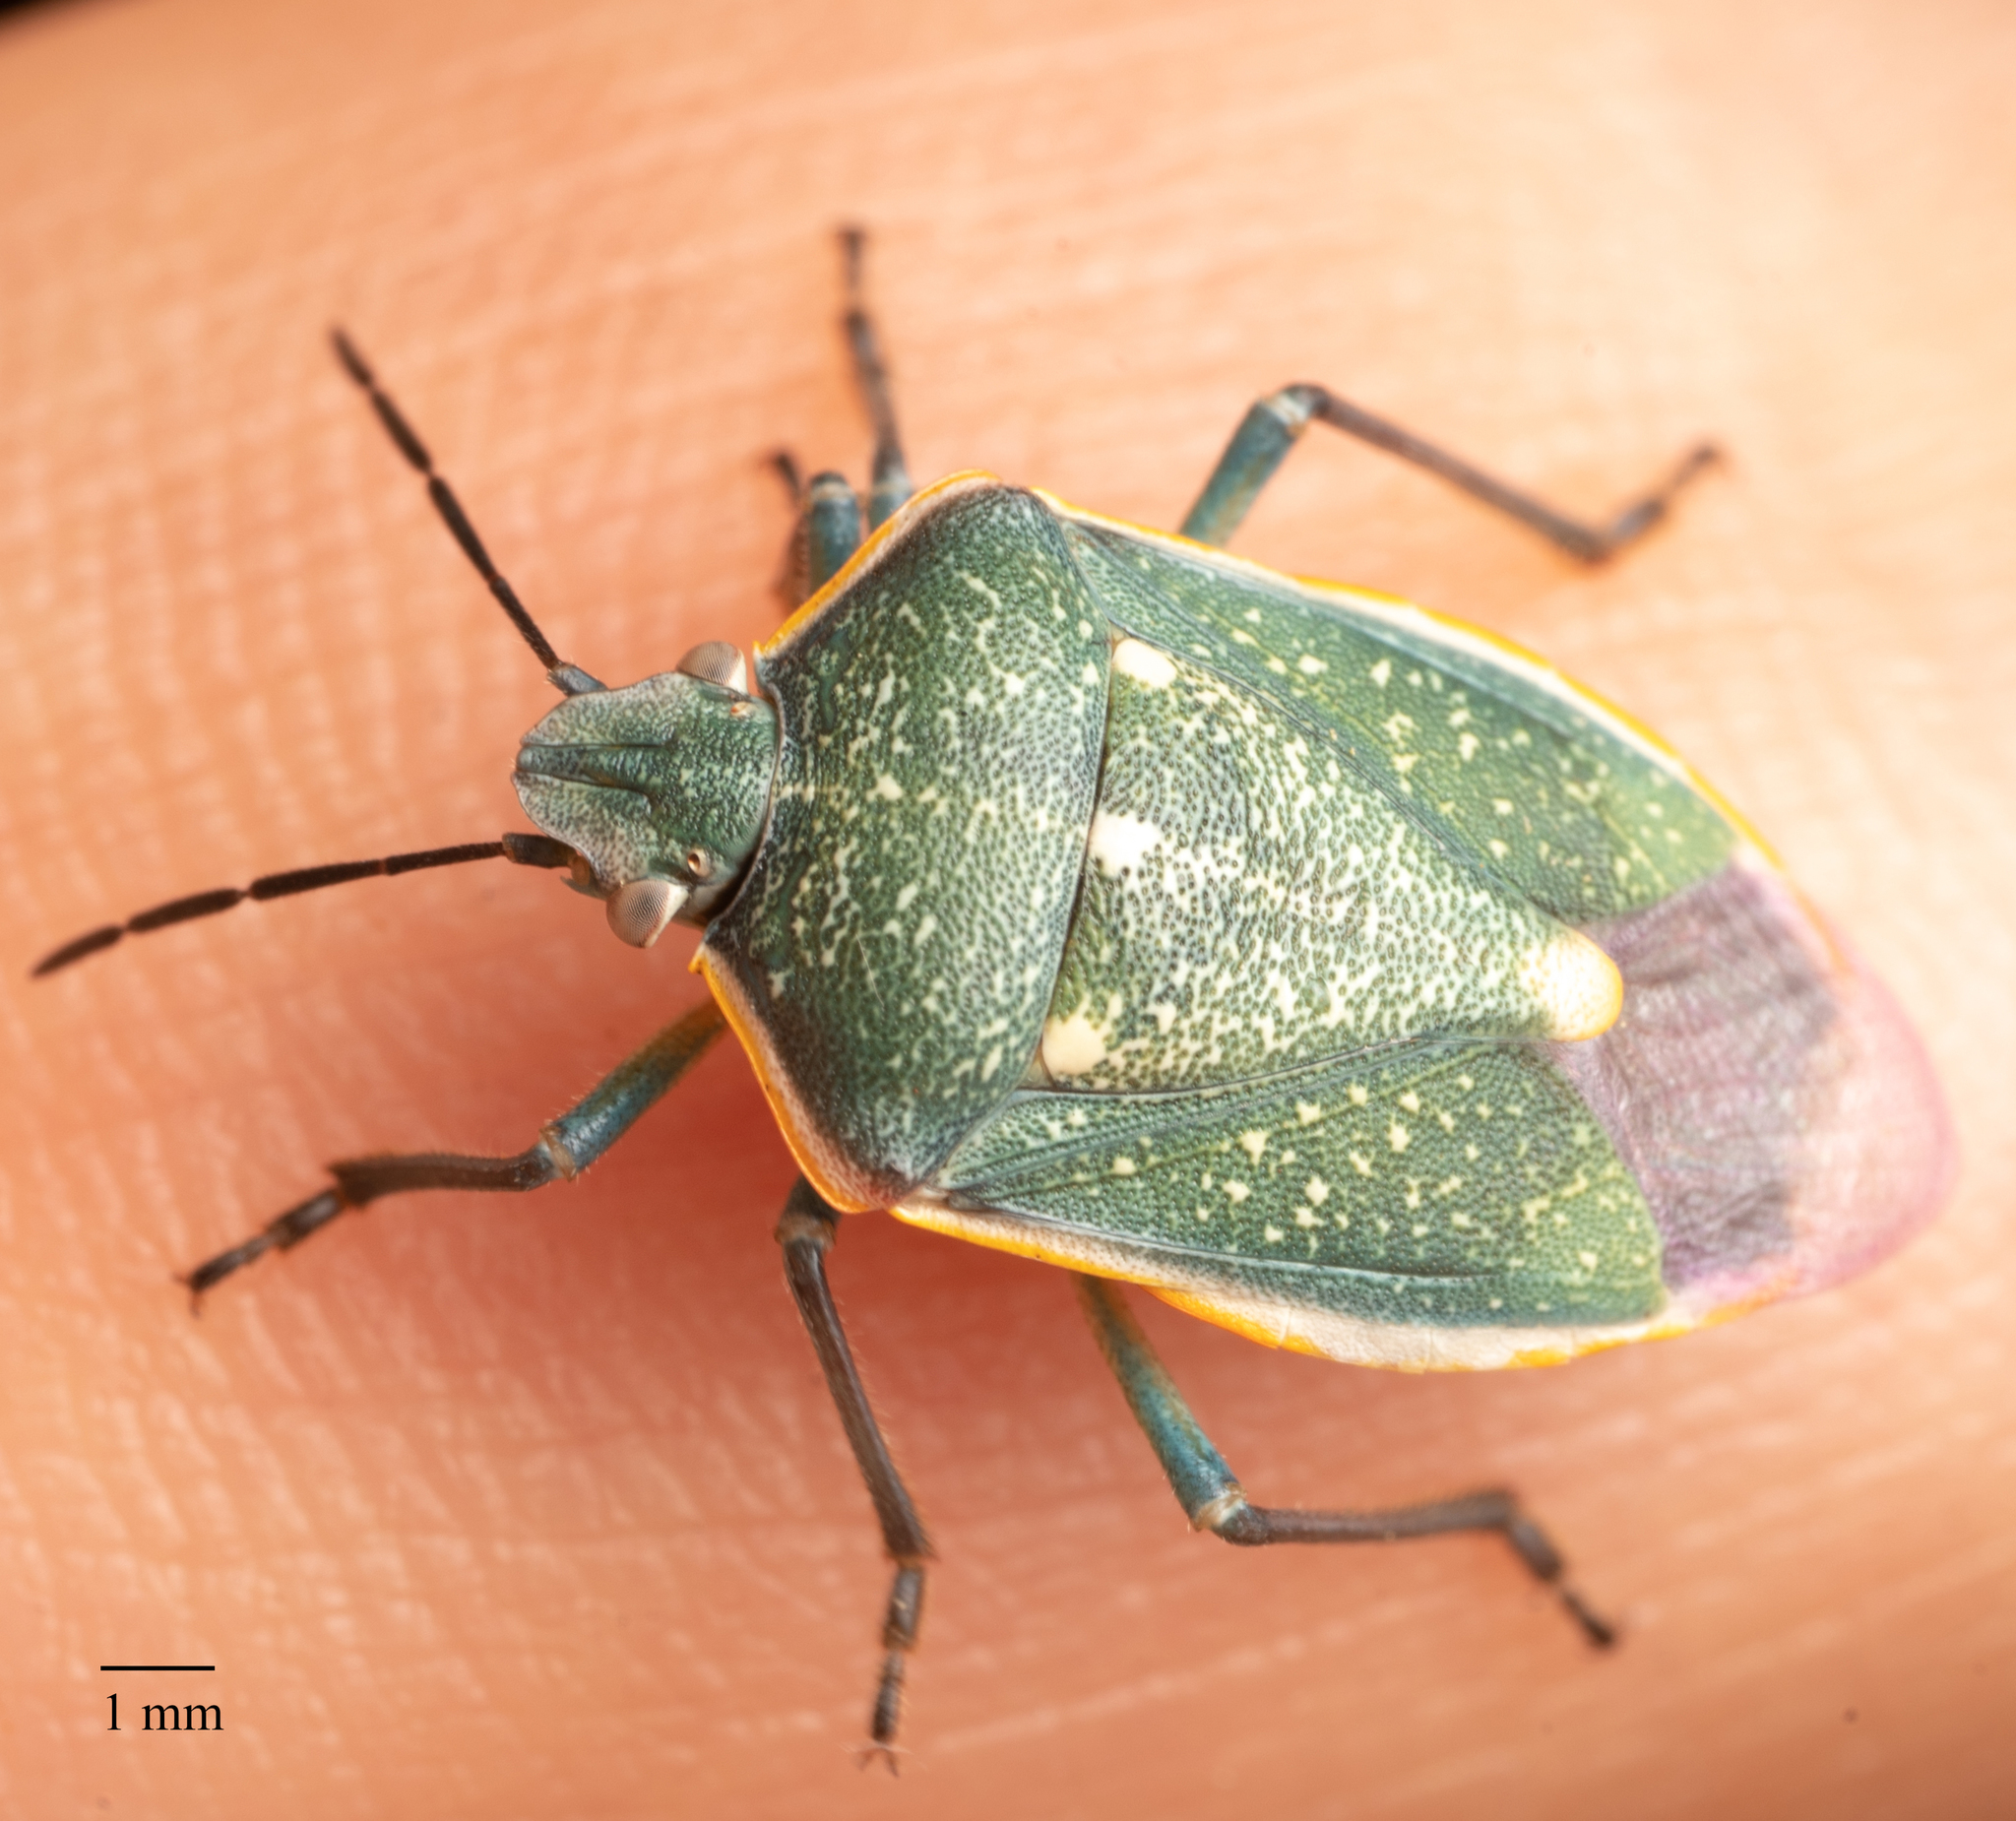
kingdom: Animalia
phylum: Arthropoda
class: Insecta
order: Hemiptera
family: Pentatomidae
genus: Chlorochroa
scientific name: Chlorochroa sayi
